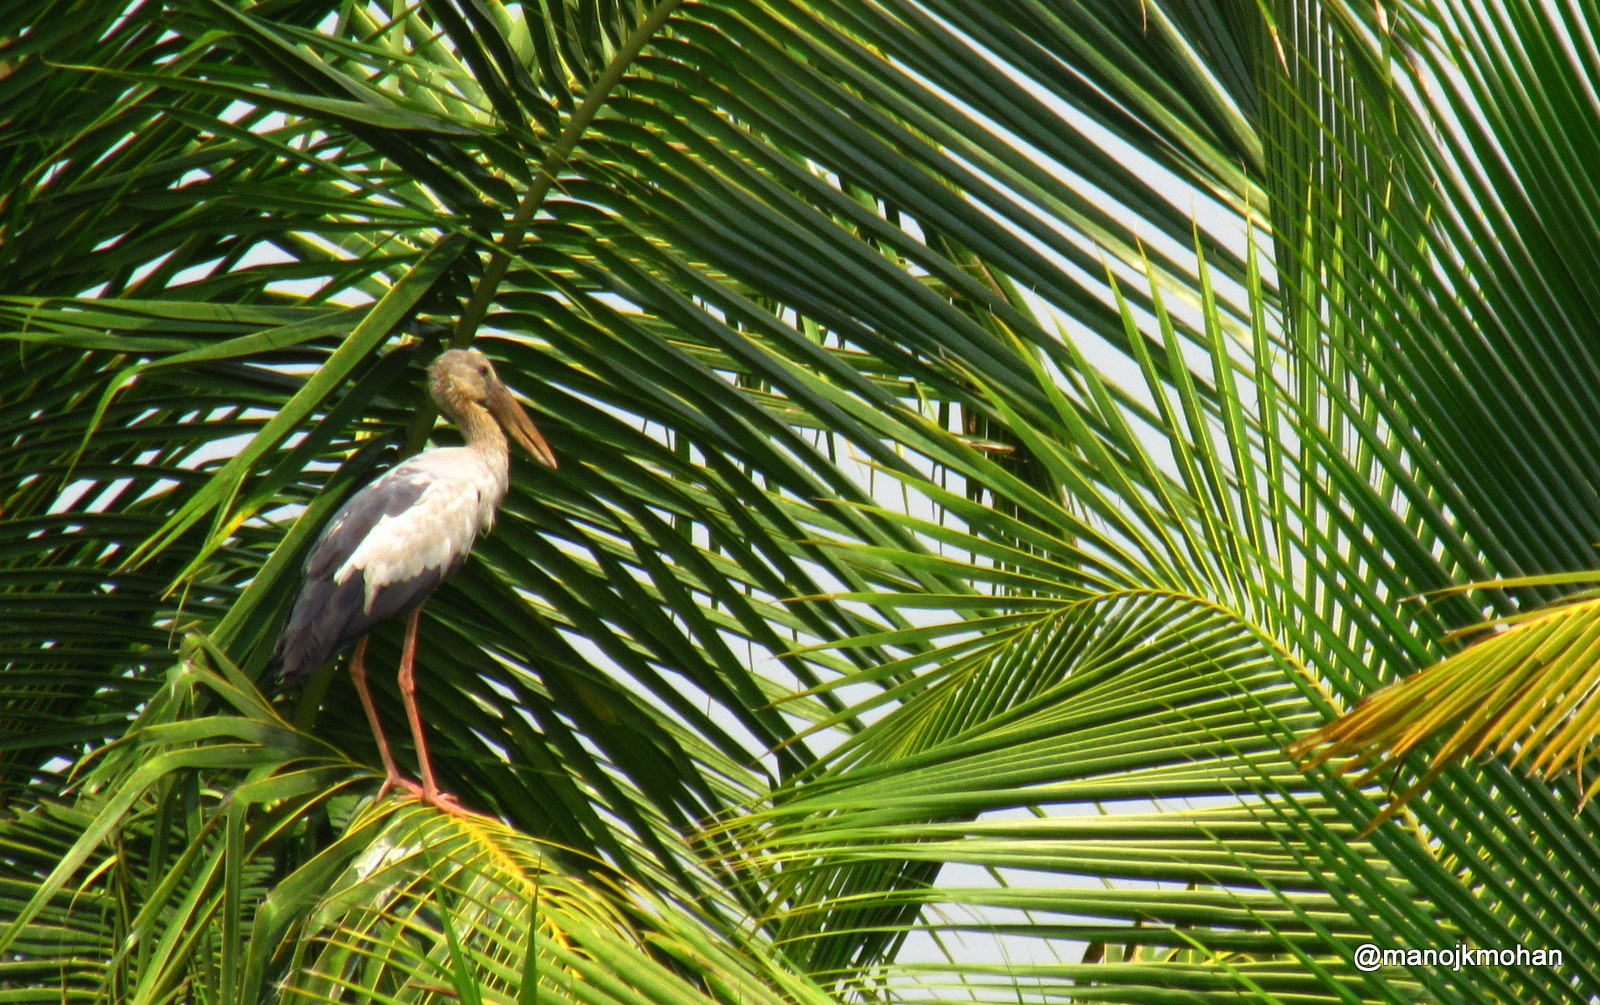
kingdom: Animalia
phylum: Chordata
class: Aves
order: Ciconiiformes
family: Ciconiidae
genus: Anastomus
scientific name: Anastomus oscitans
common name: Asian openbill
